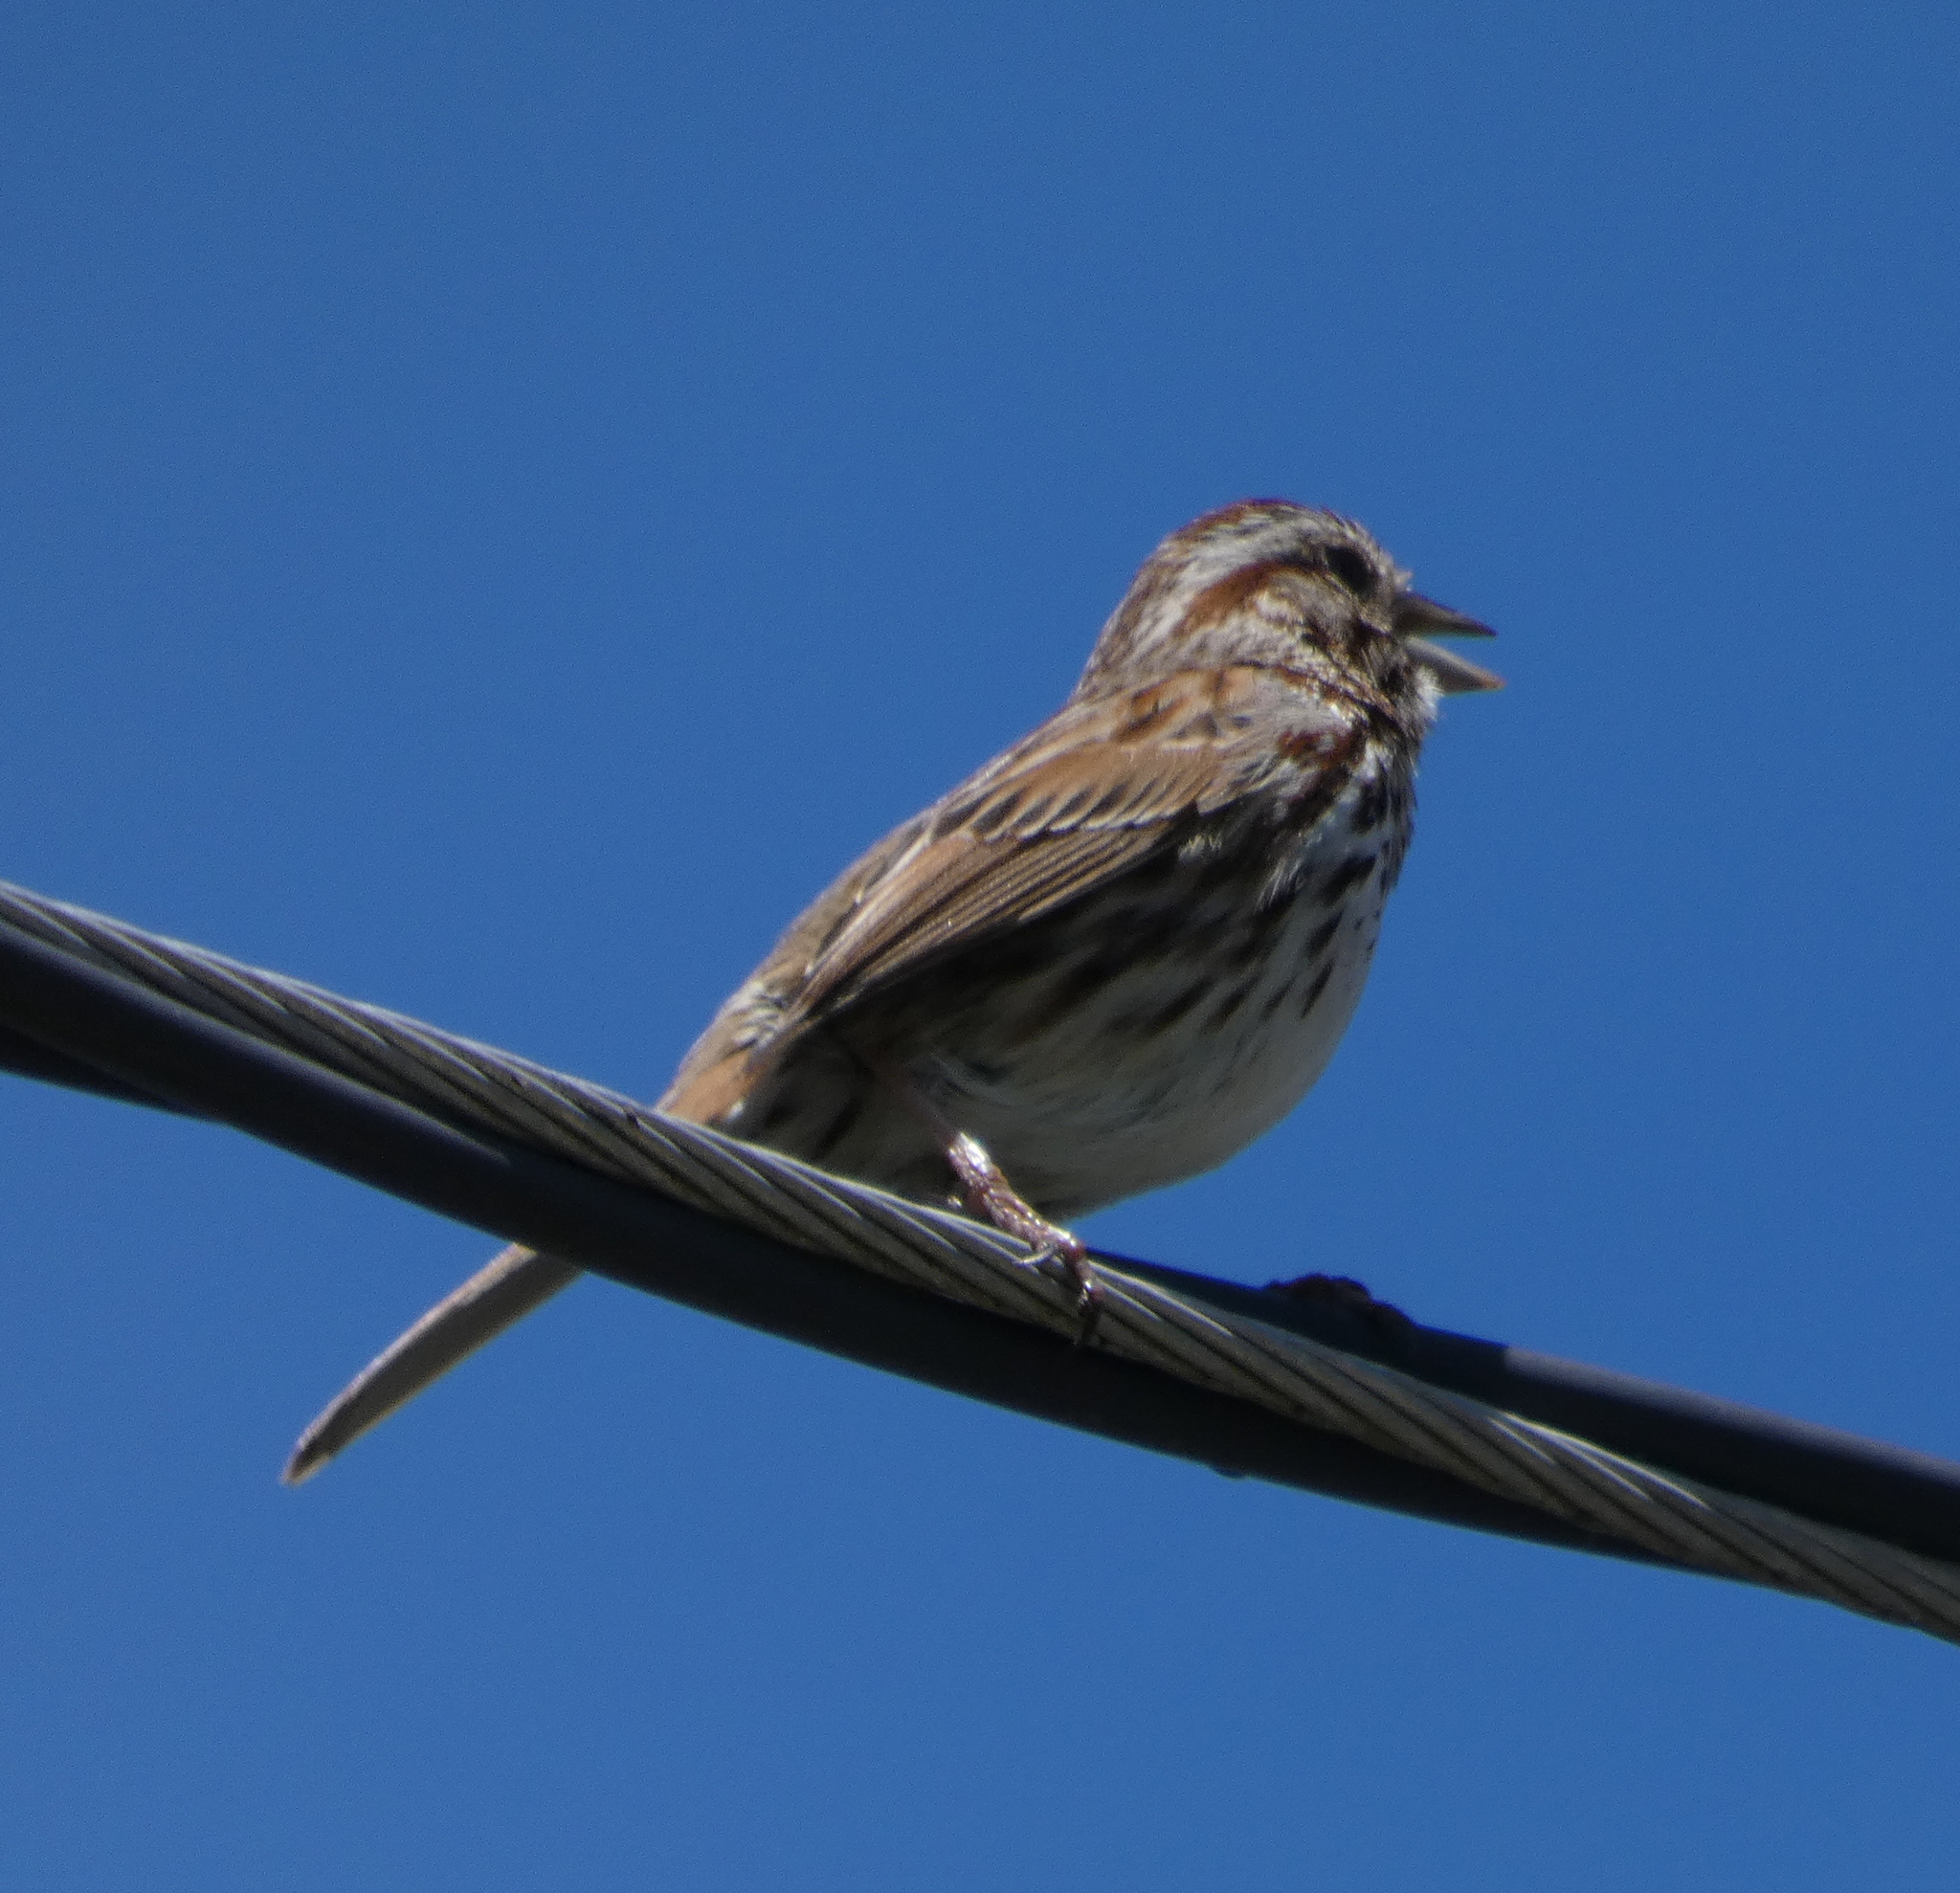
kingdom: Animalia
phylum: Chordata
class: Aves
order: Passeriformes
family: Passerellidae
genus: Melospiza
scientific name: Melospiza melodia
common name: Song sparrow
